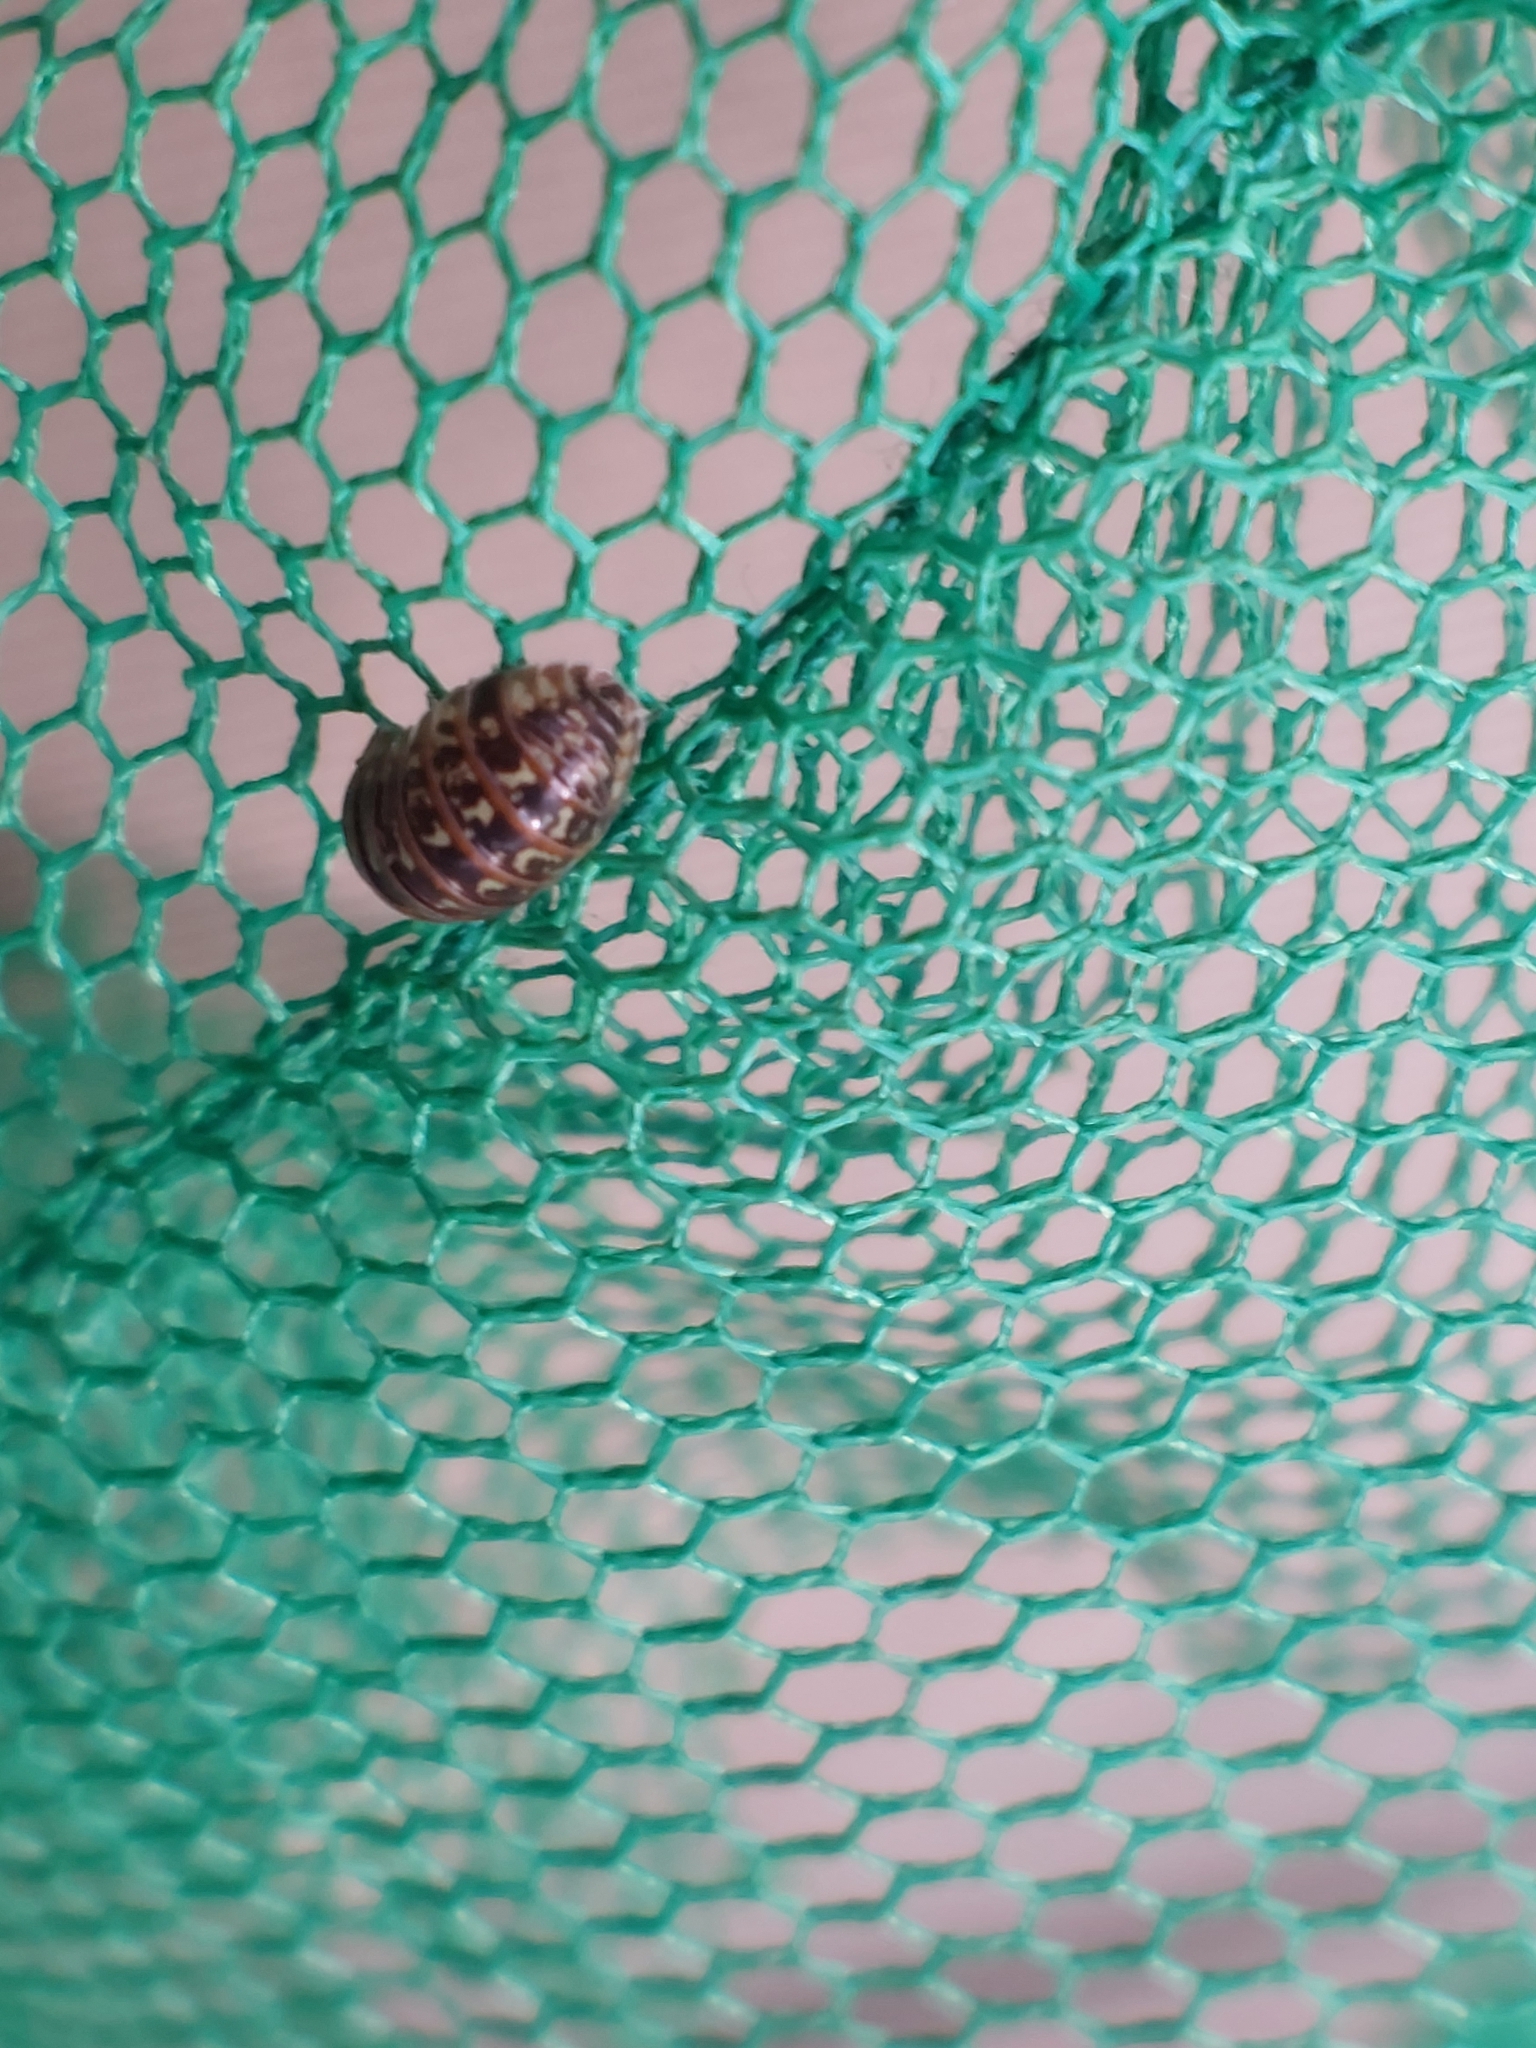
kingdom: Animalia
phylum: Arthropoda
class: Malacostraca
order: Isopoda
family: Armadillidiidae
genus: Armadillidium
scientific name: Armadillidium pictum
